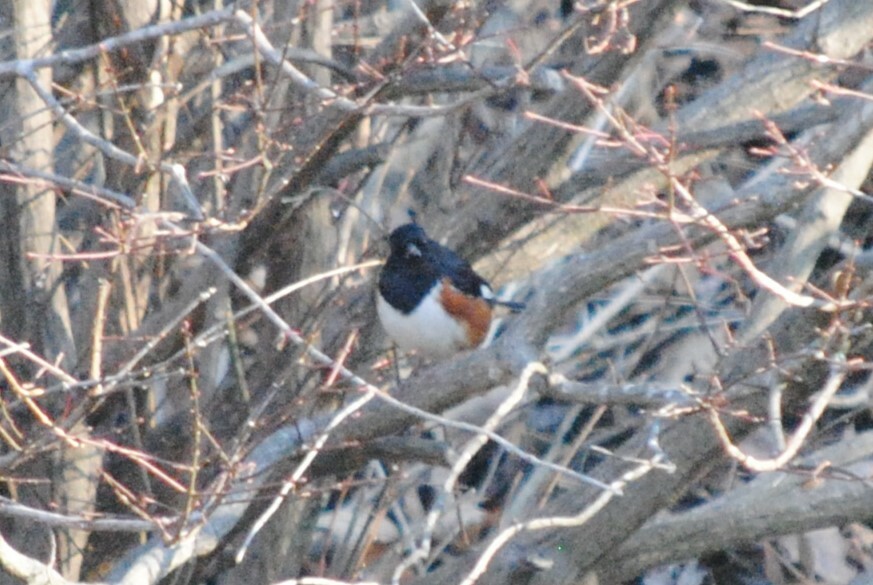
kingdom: Animalia
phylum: Chordata
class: Aves
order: Passeriformes
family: Passerellidae
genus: Pipilo
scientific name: Pipilo erythrophthalmus
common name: Eastern towhee
